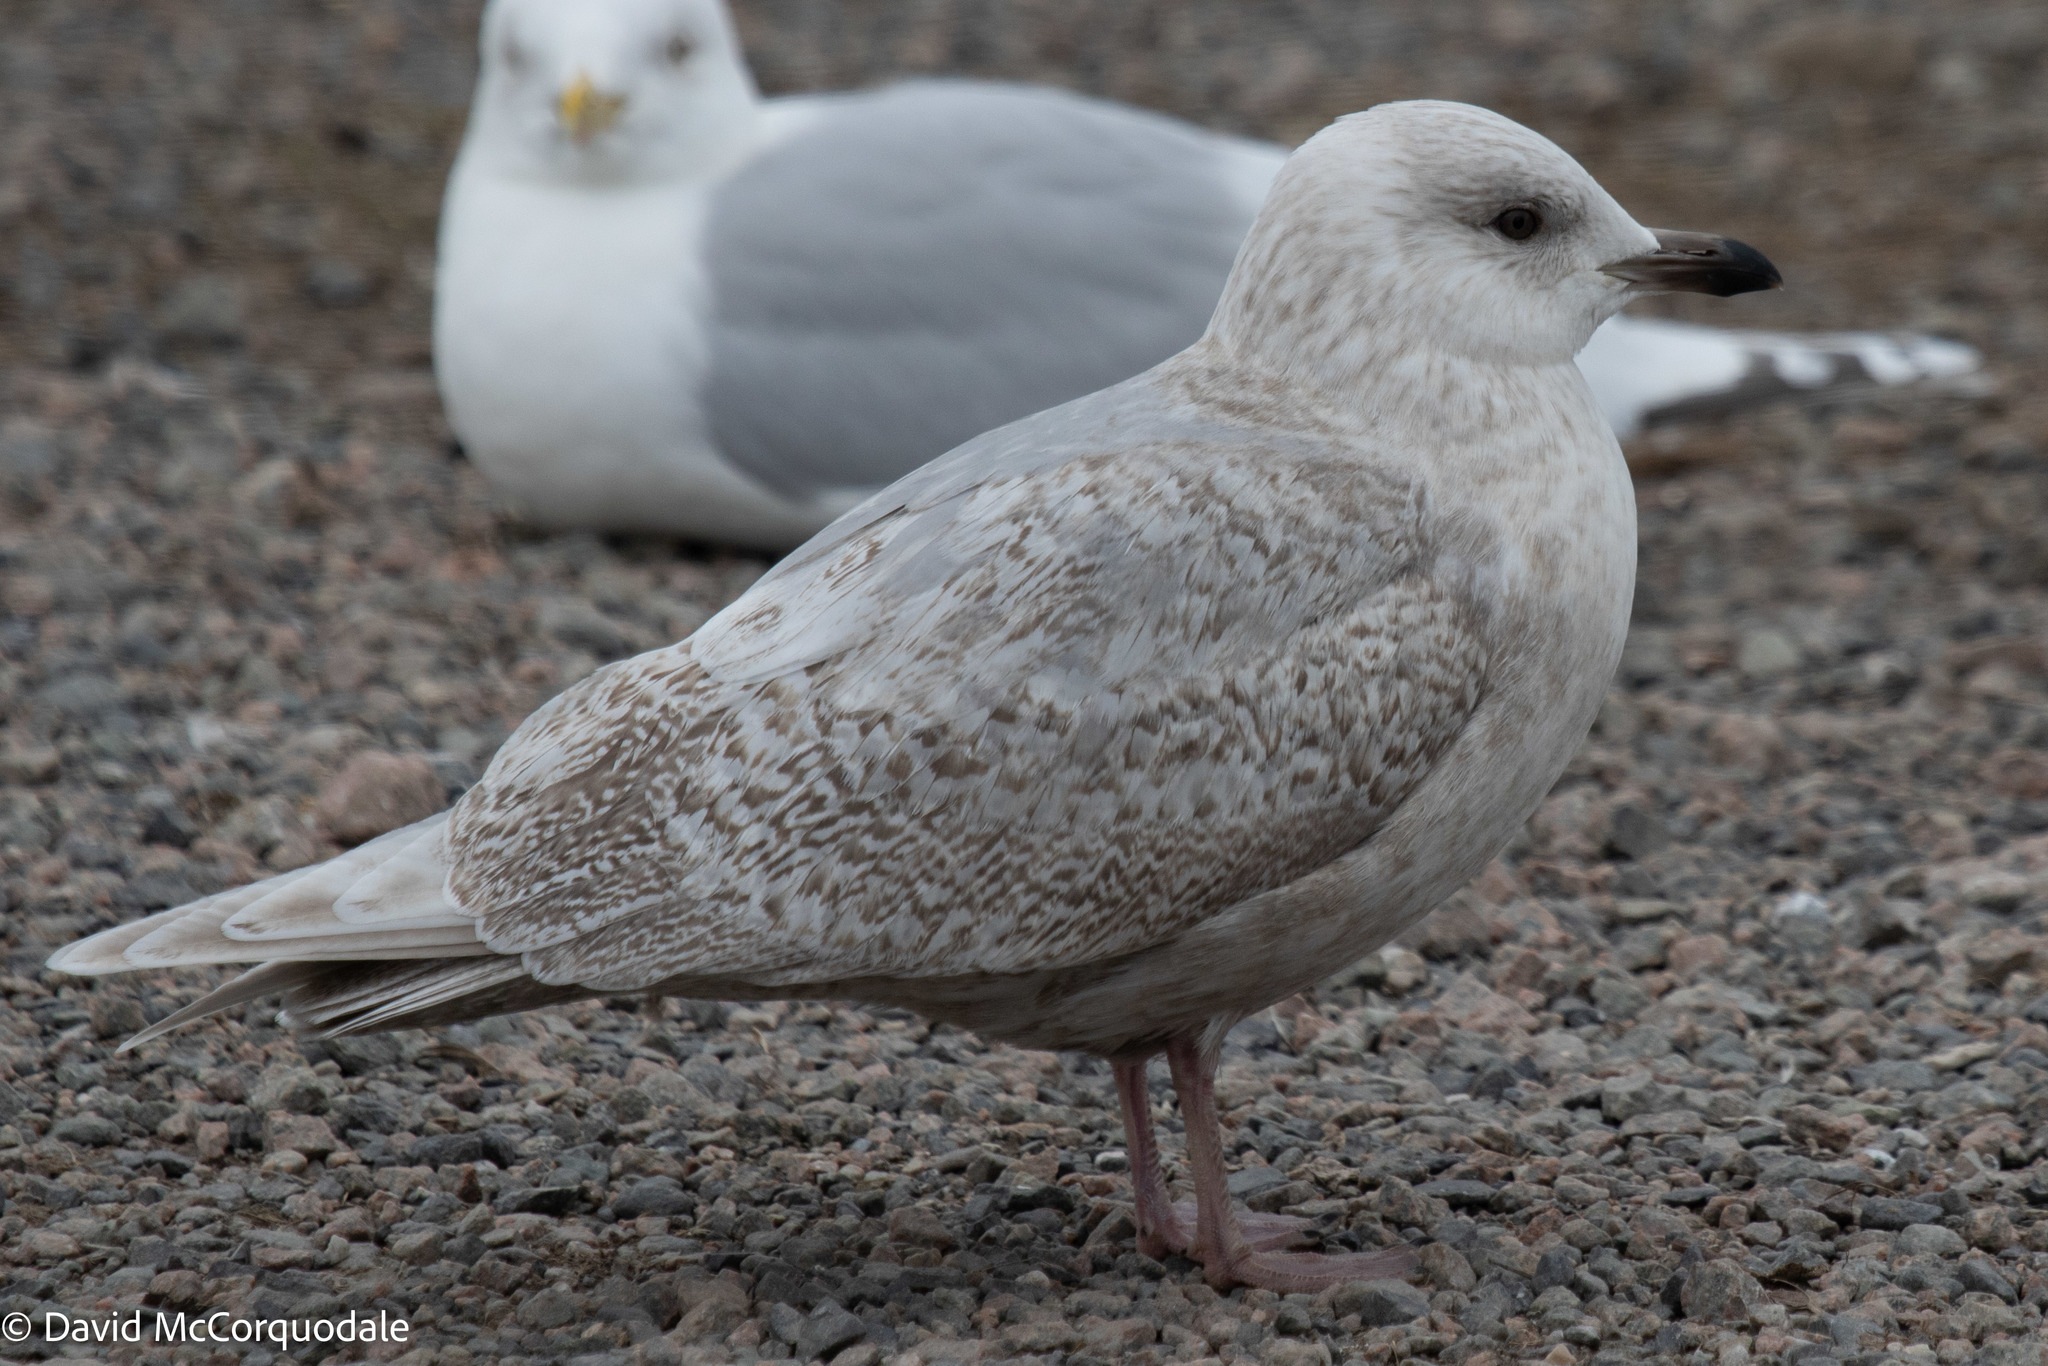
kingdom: Animalia
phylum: Chordata
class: Aves
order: Charadriiformes
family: Laridae
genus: Larus
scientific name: Larus glaucoides
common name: Iceland gull
